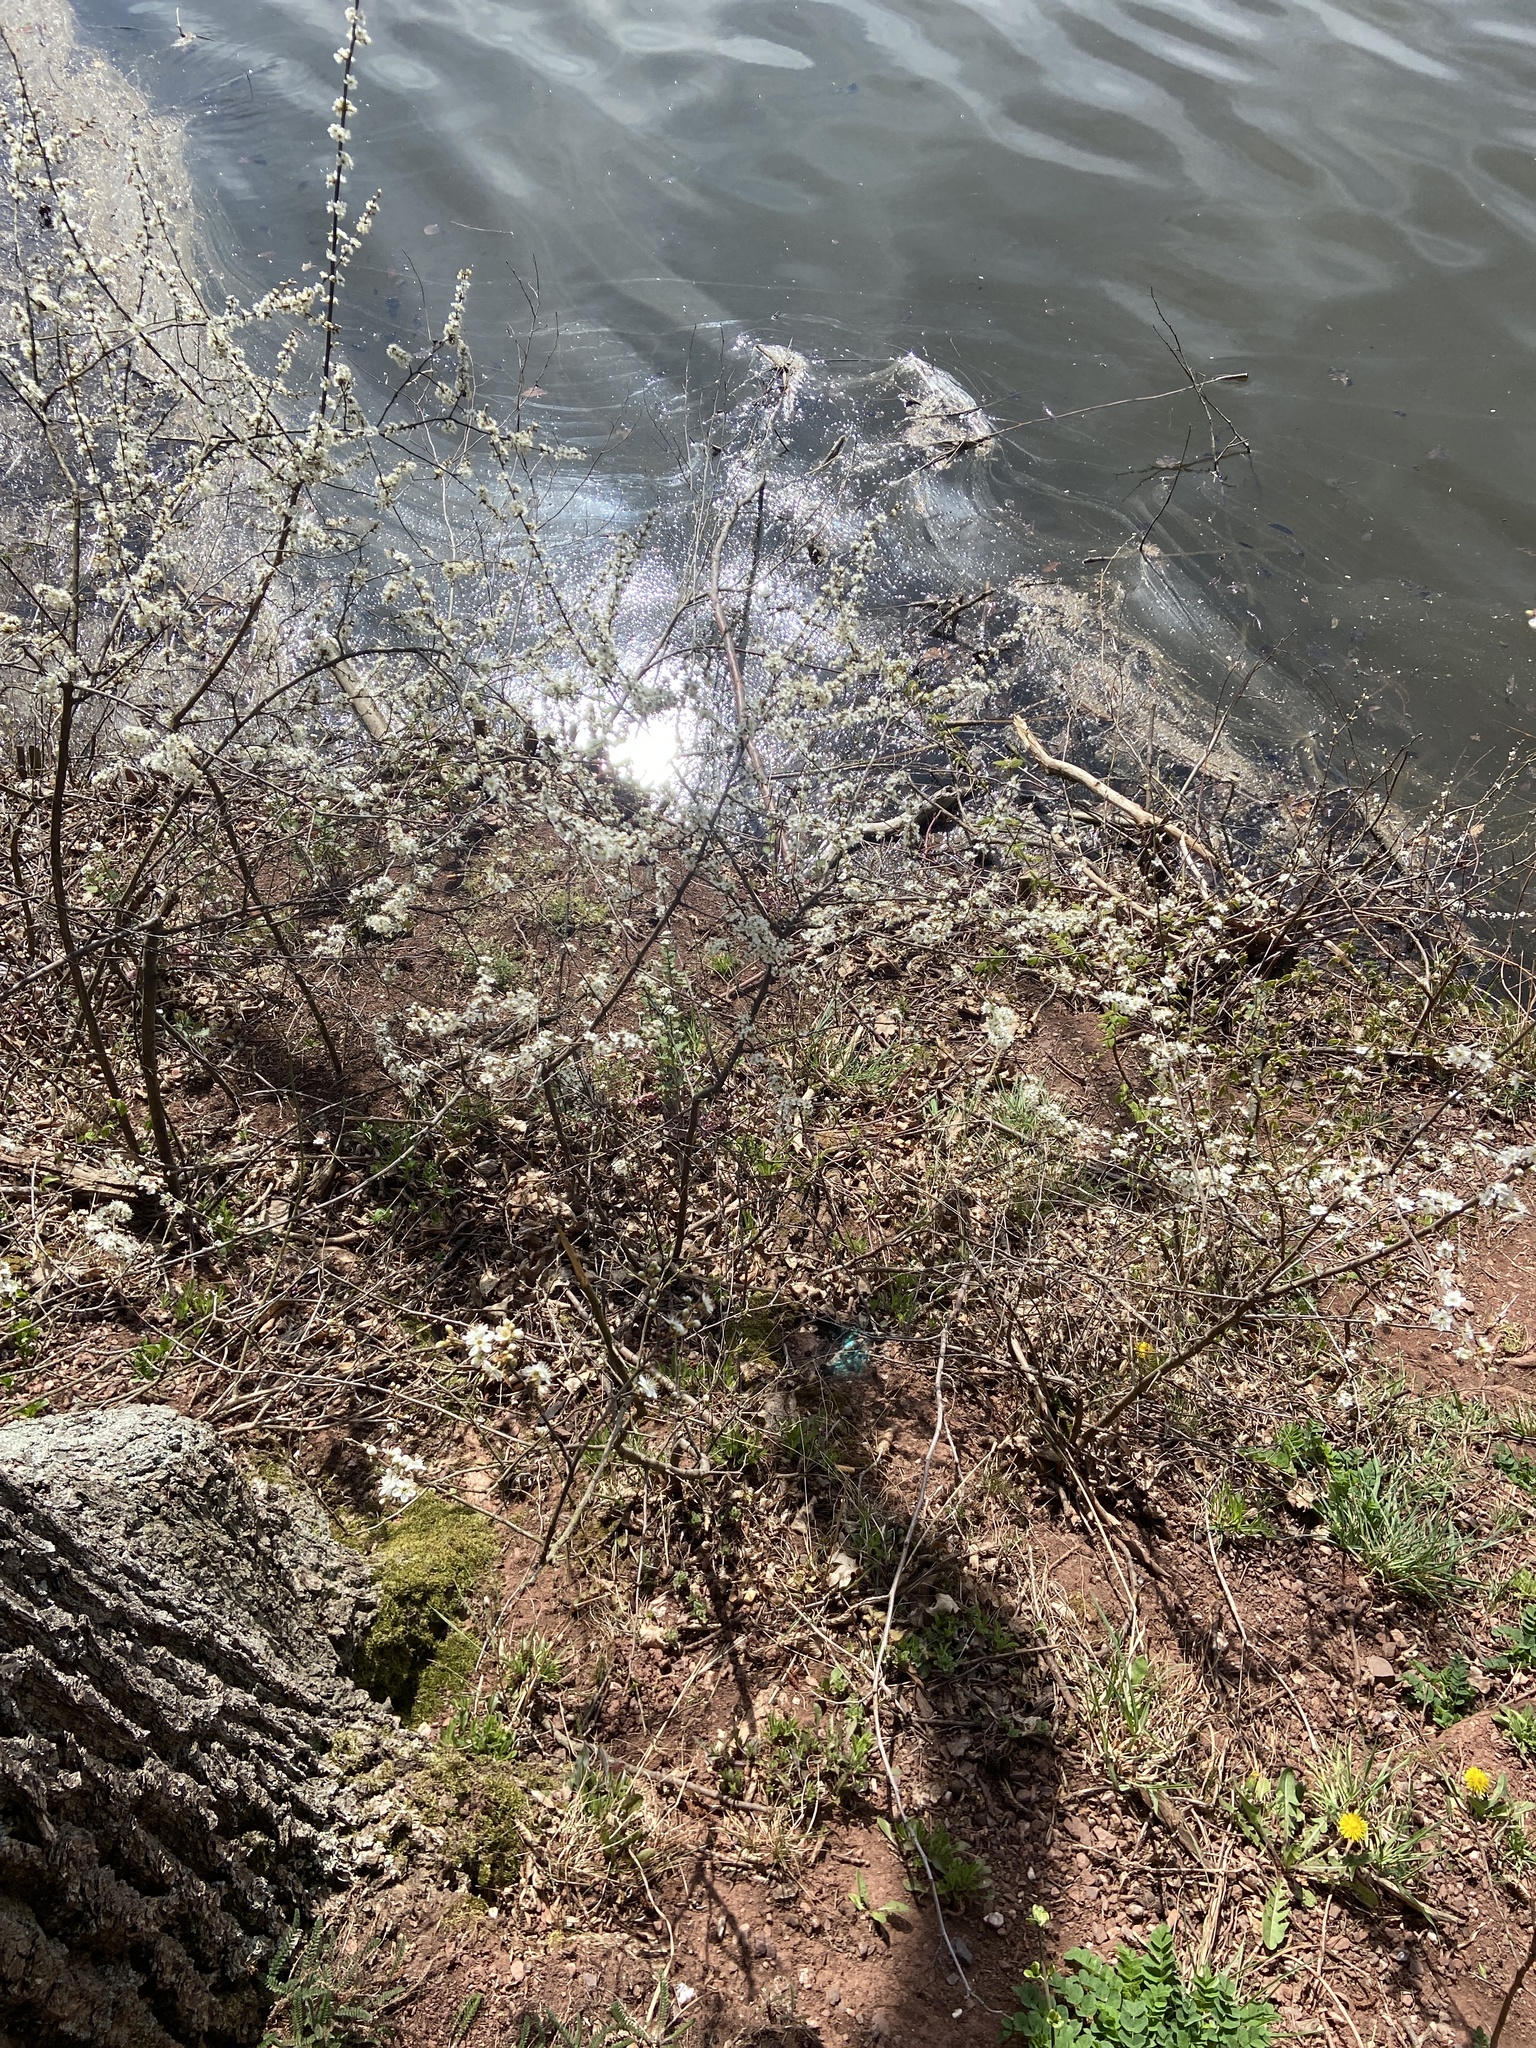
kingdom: Plantae
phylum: Tracheophyta
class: Magnoliopsida
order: Rosales
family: Rosaceae
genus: Prunus
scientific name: Prunus spinosa
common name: Blackthorn
